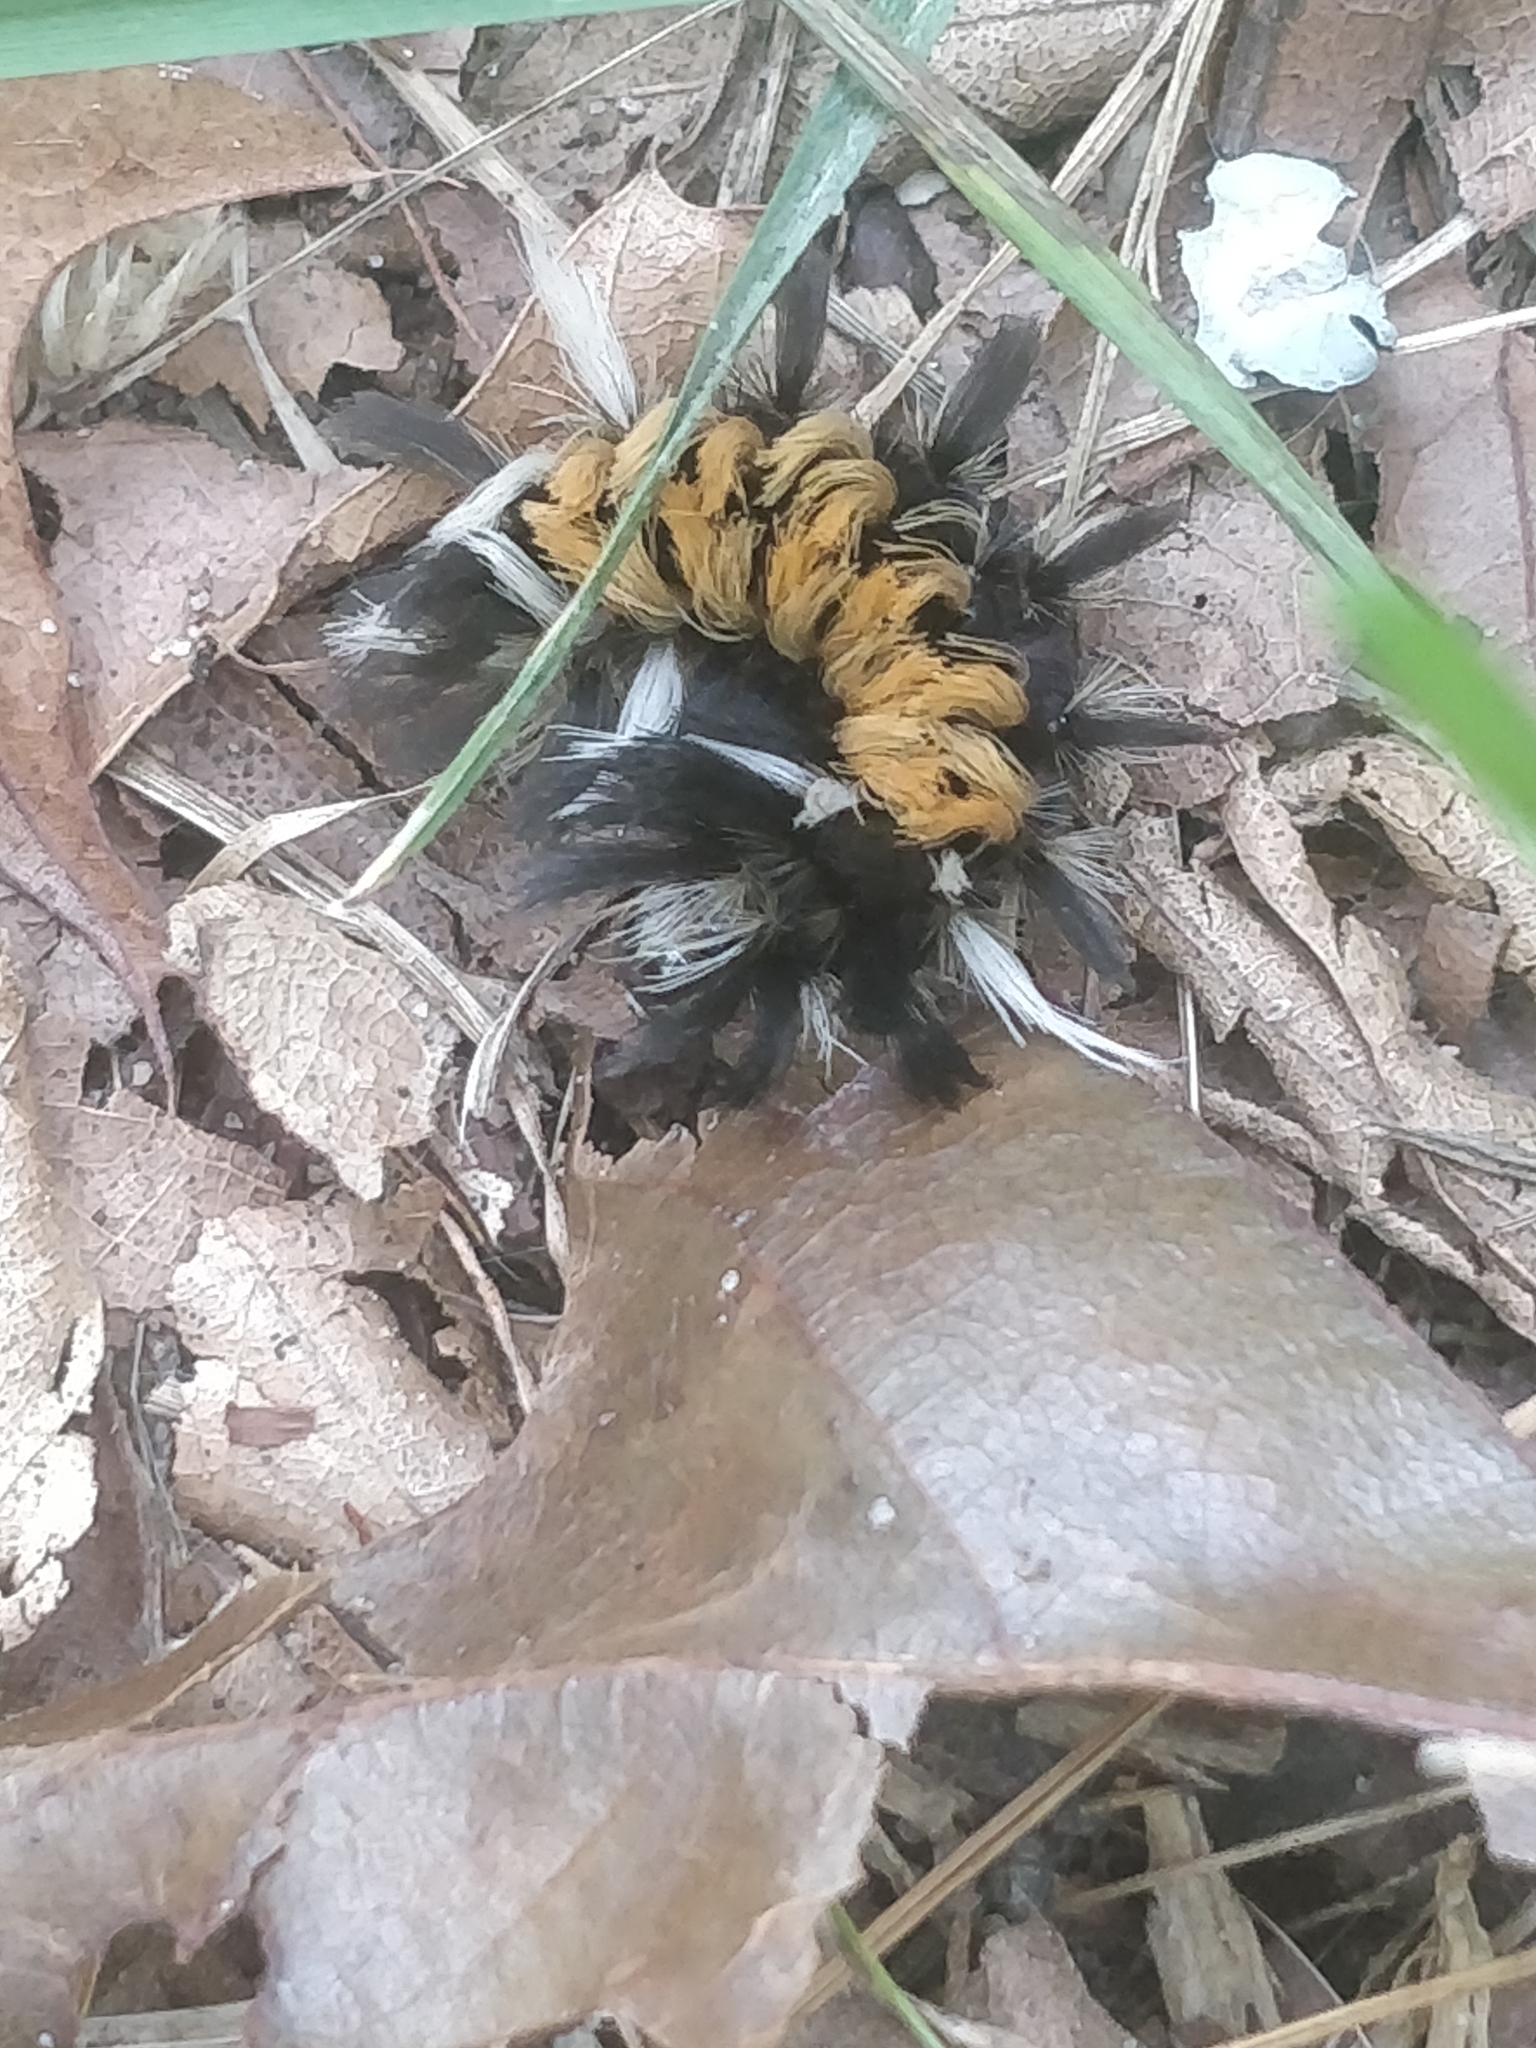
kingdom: Animalia
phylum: Arthropoda
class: Insecta
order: Lepidoptera
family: Erebidae
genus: Euchaetes
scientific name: Euchaetes egle
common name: Milkweed tussock moth
